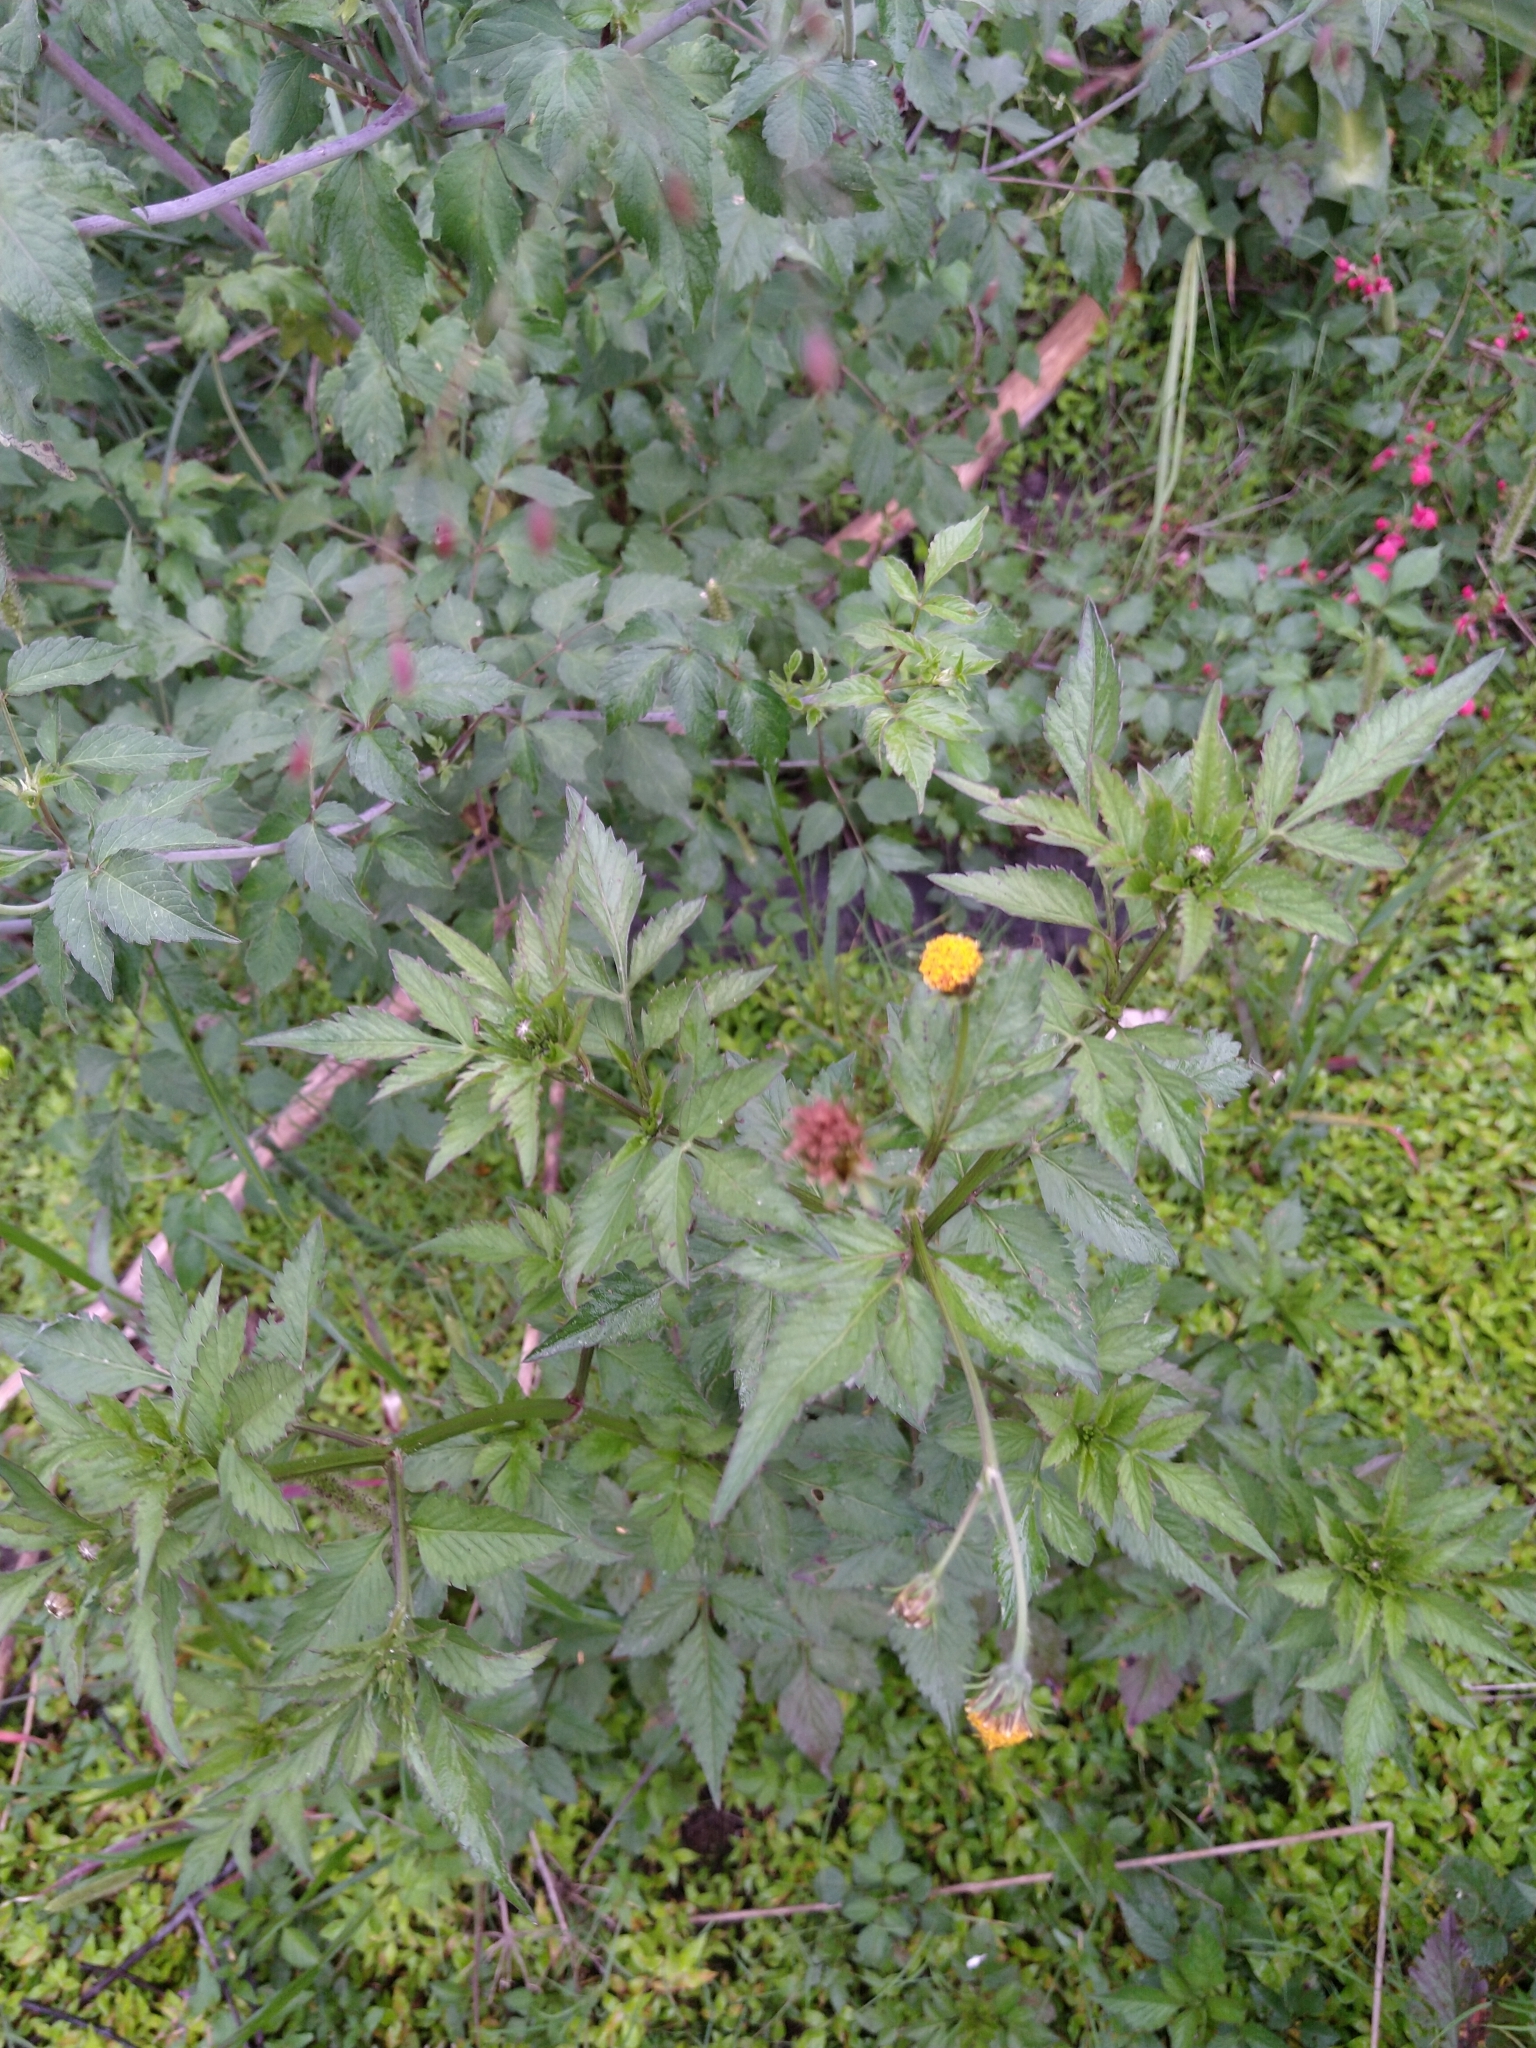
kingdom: Plantae
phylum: Tracheophyta
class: Magnoliopsida
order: Asterales
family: Asteraceae
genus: Bidens
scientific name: Bidens pilosa
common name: Black-jack
